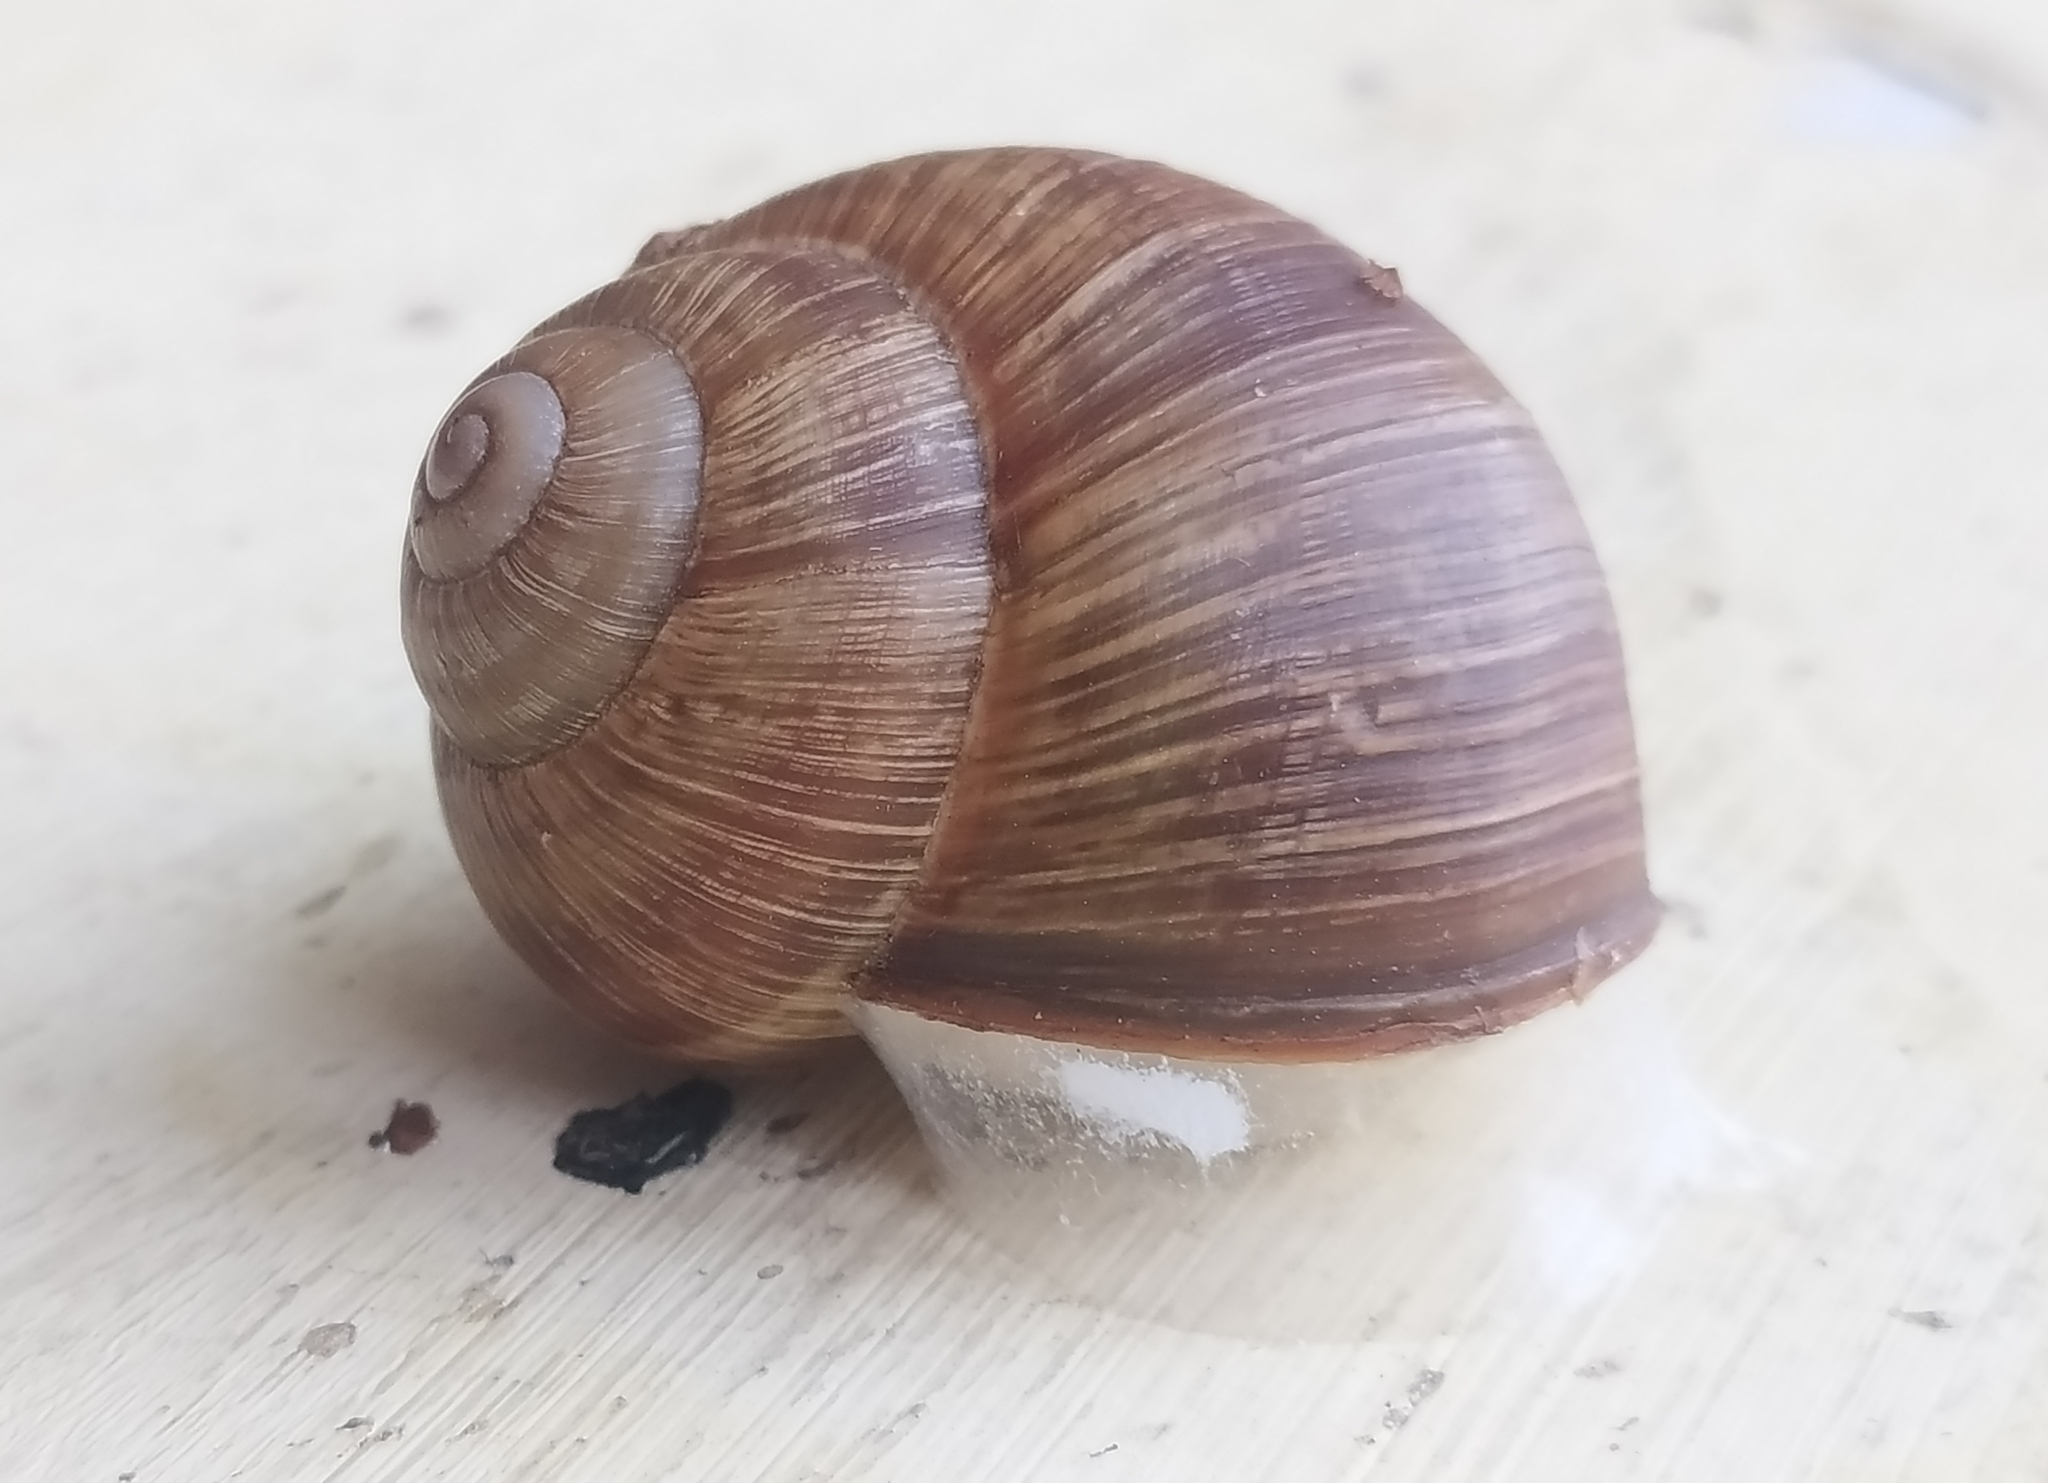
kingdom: Animalia
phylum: Mollusca
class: Gastropoda
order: Stylommatophora
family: Helicidae
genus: Helix
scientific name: Helix pomatia
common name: Roman snail
